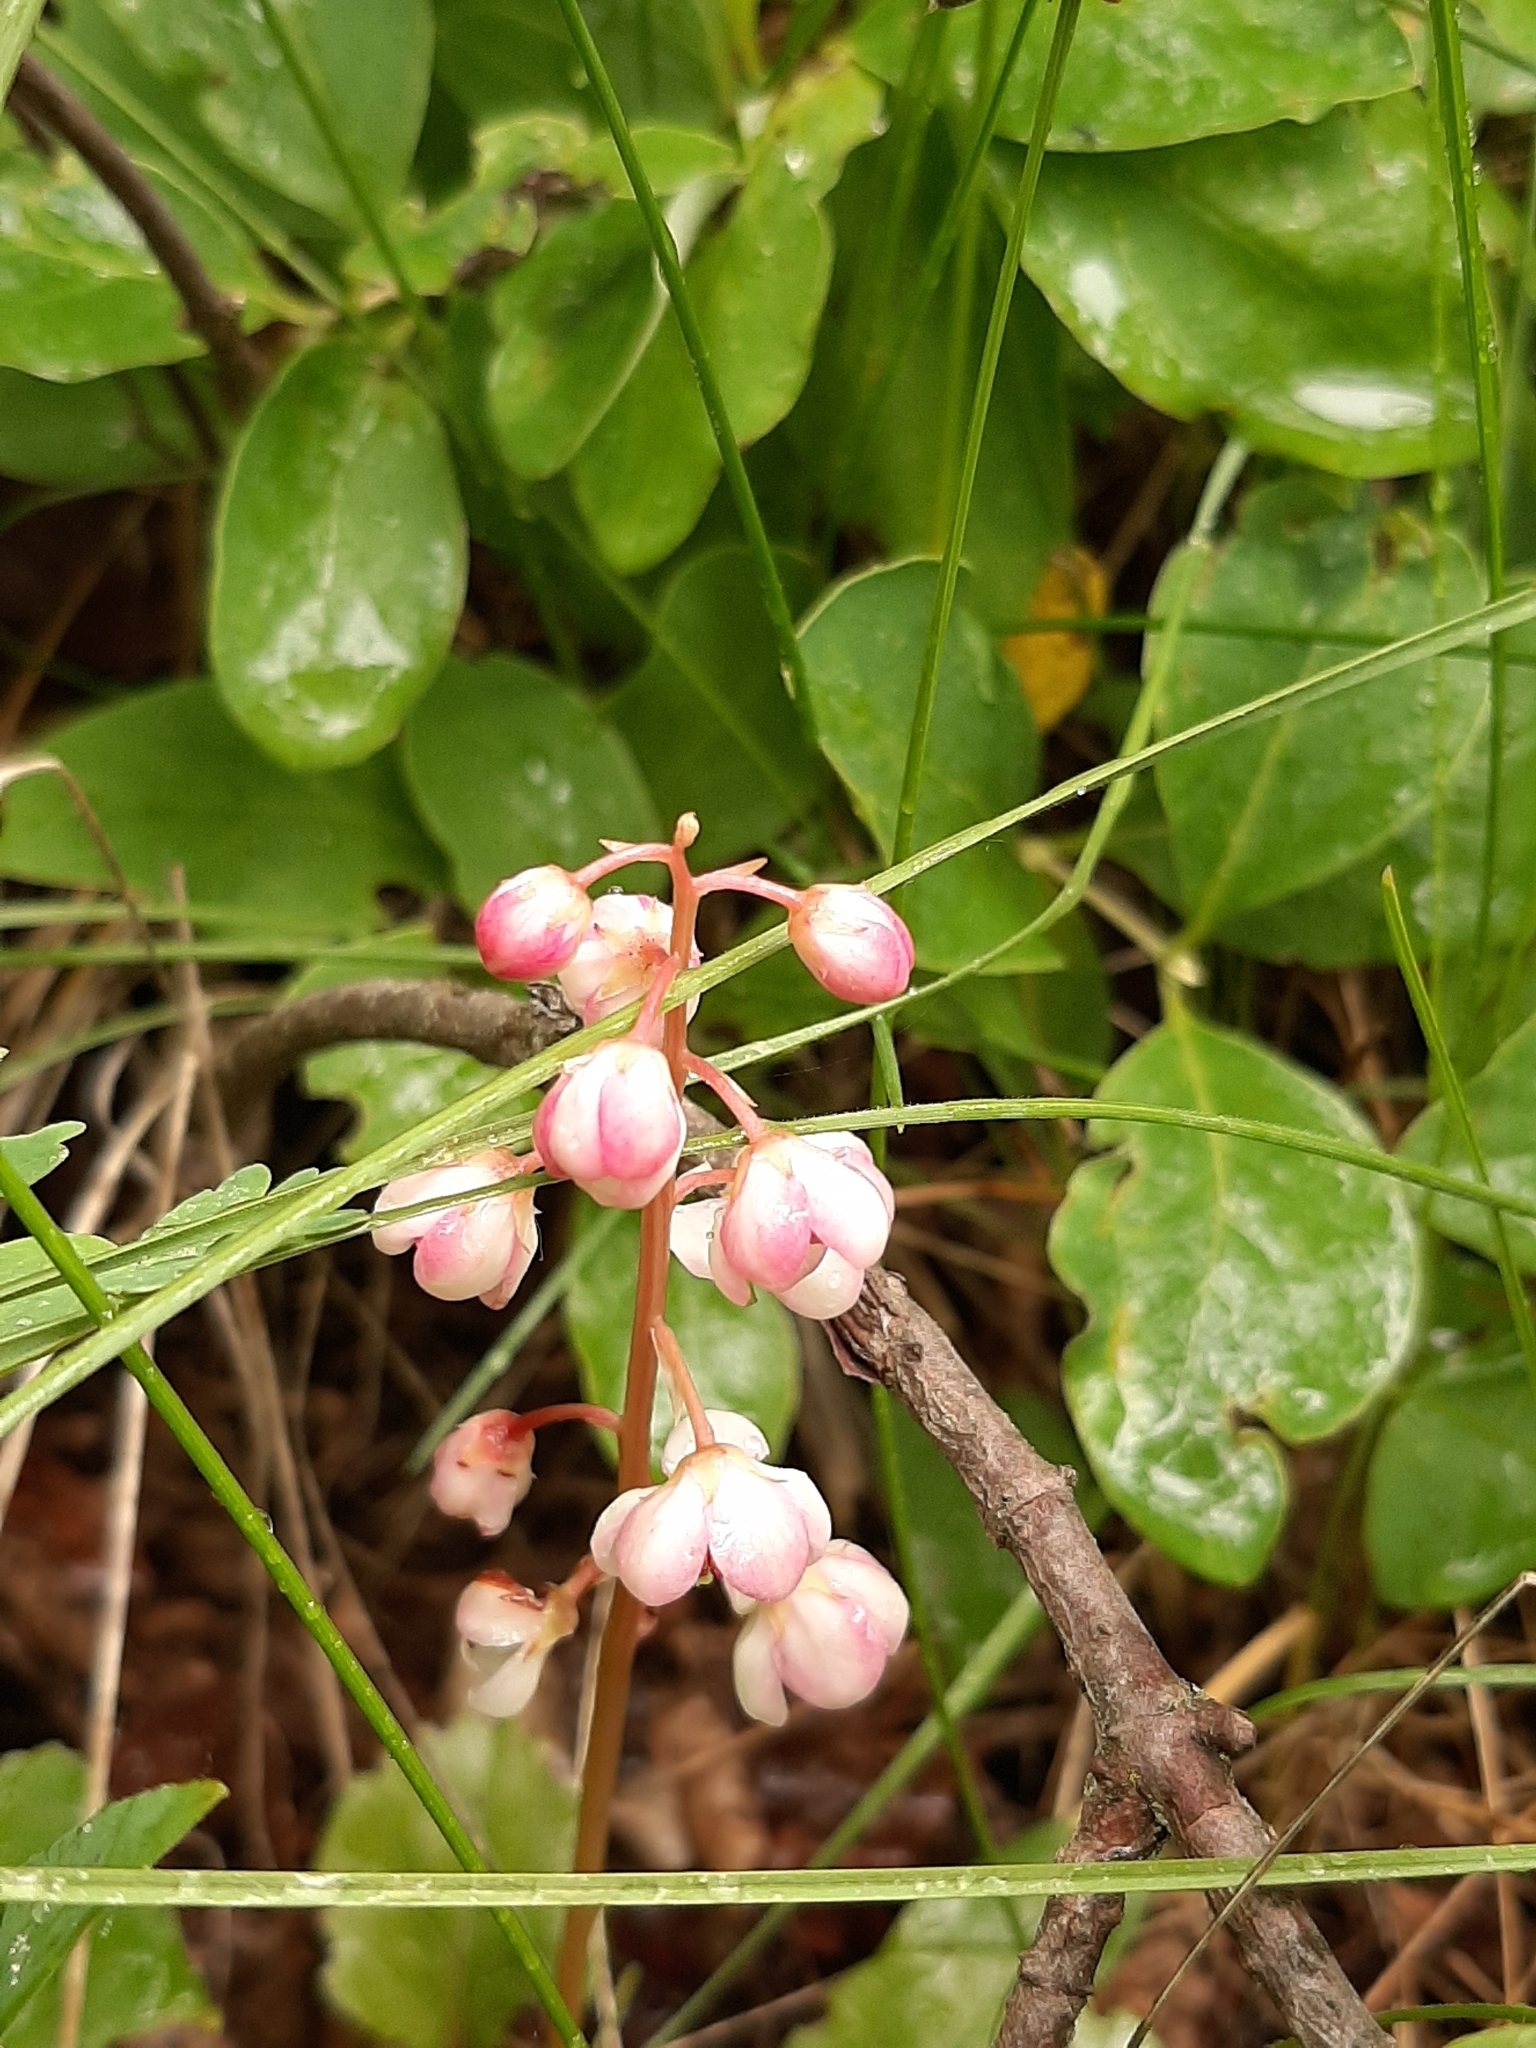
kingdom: Plantae
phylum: Tracheophyta
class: Magnoliopsida
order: Ericales
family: Ericaceae
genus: Pyrola
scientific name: Pyrola asarifolia
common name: Bog wintergreen
